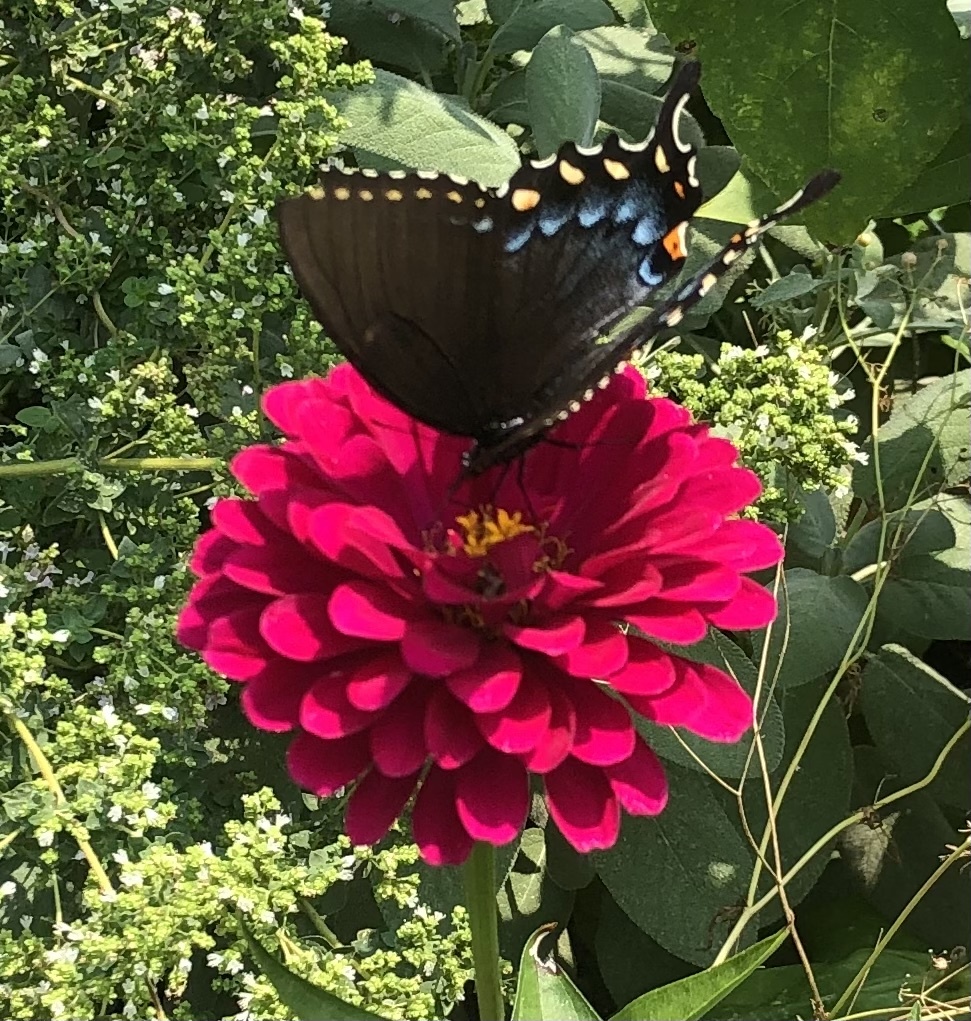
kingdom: Animalia
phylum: Arthropoda
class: Insecta
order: Lepidoptera
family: Papilionidae
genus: Papilio
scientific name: Papilio glaucus
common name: Tiger swallowtail
